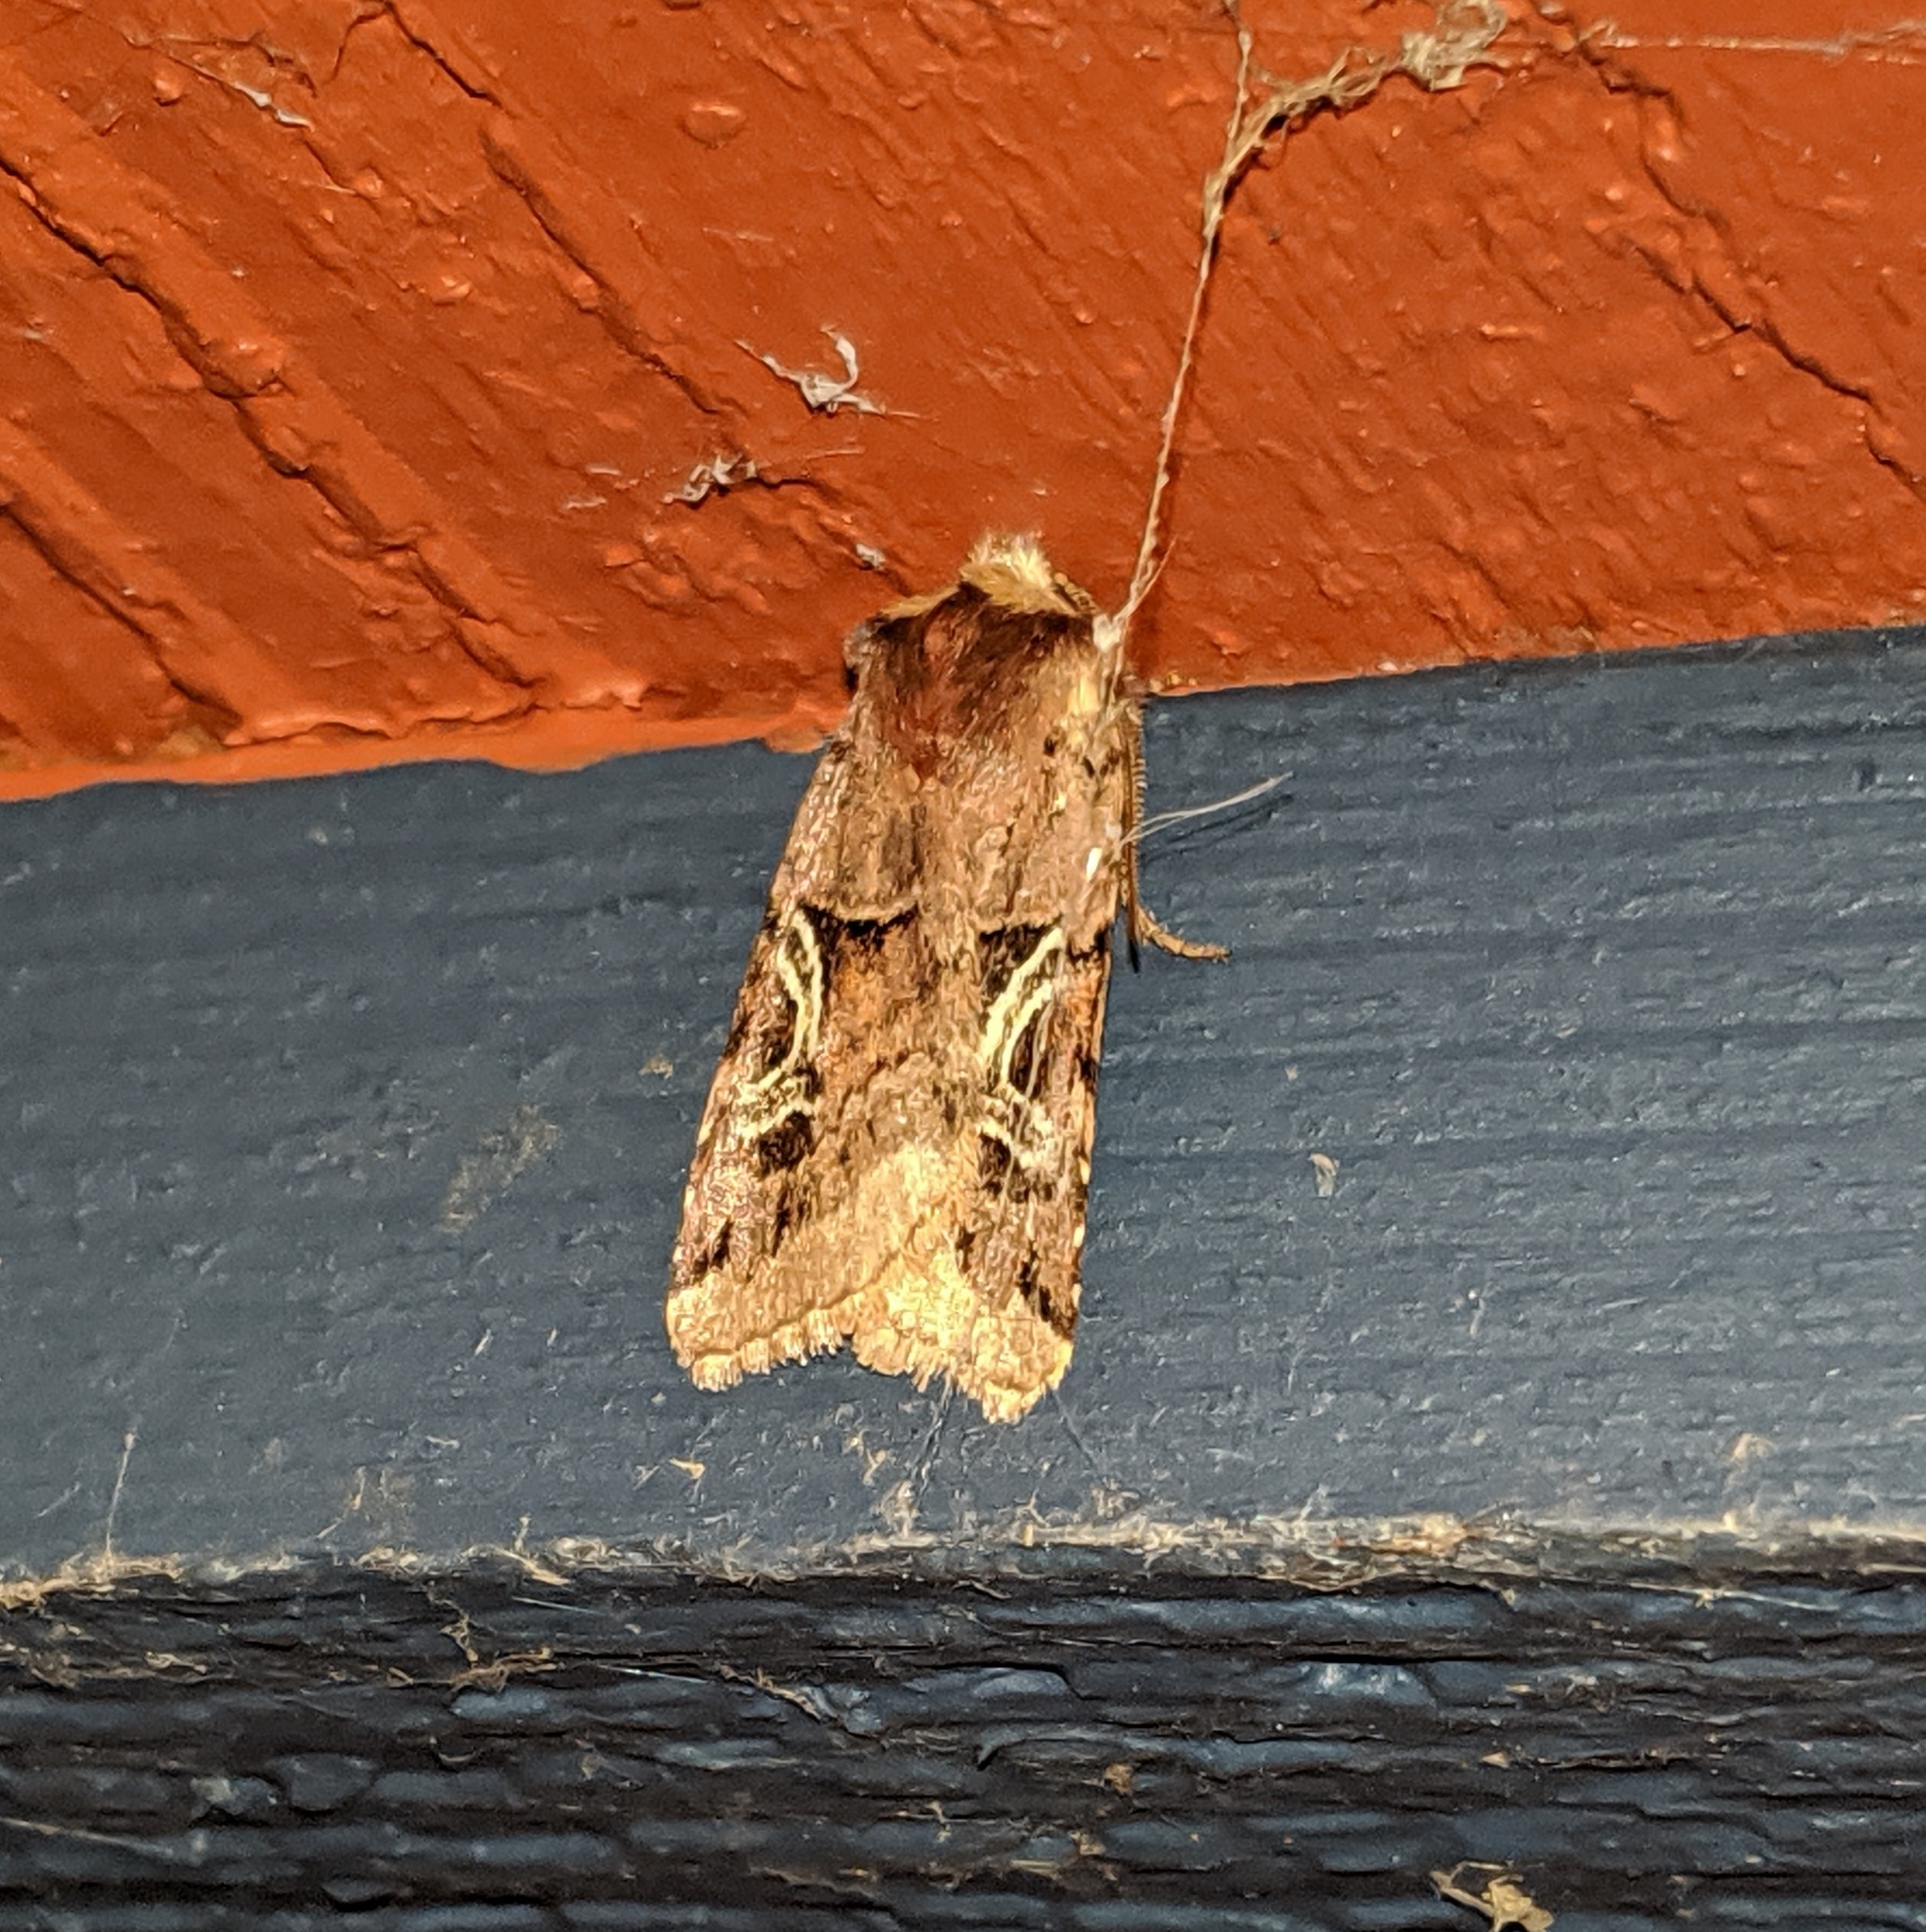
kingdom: Animalia
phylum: Arthropoda
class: Insecta
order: Lepidoptera
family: Noctuidae
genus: Cerastis
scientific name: Cerastis enigmatica
